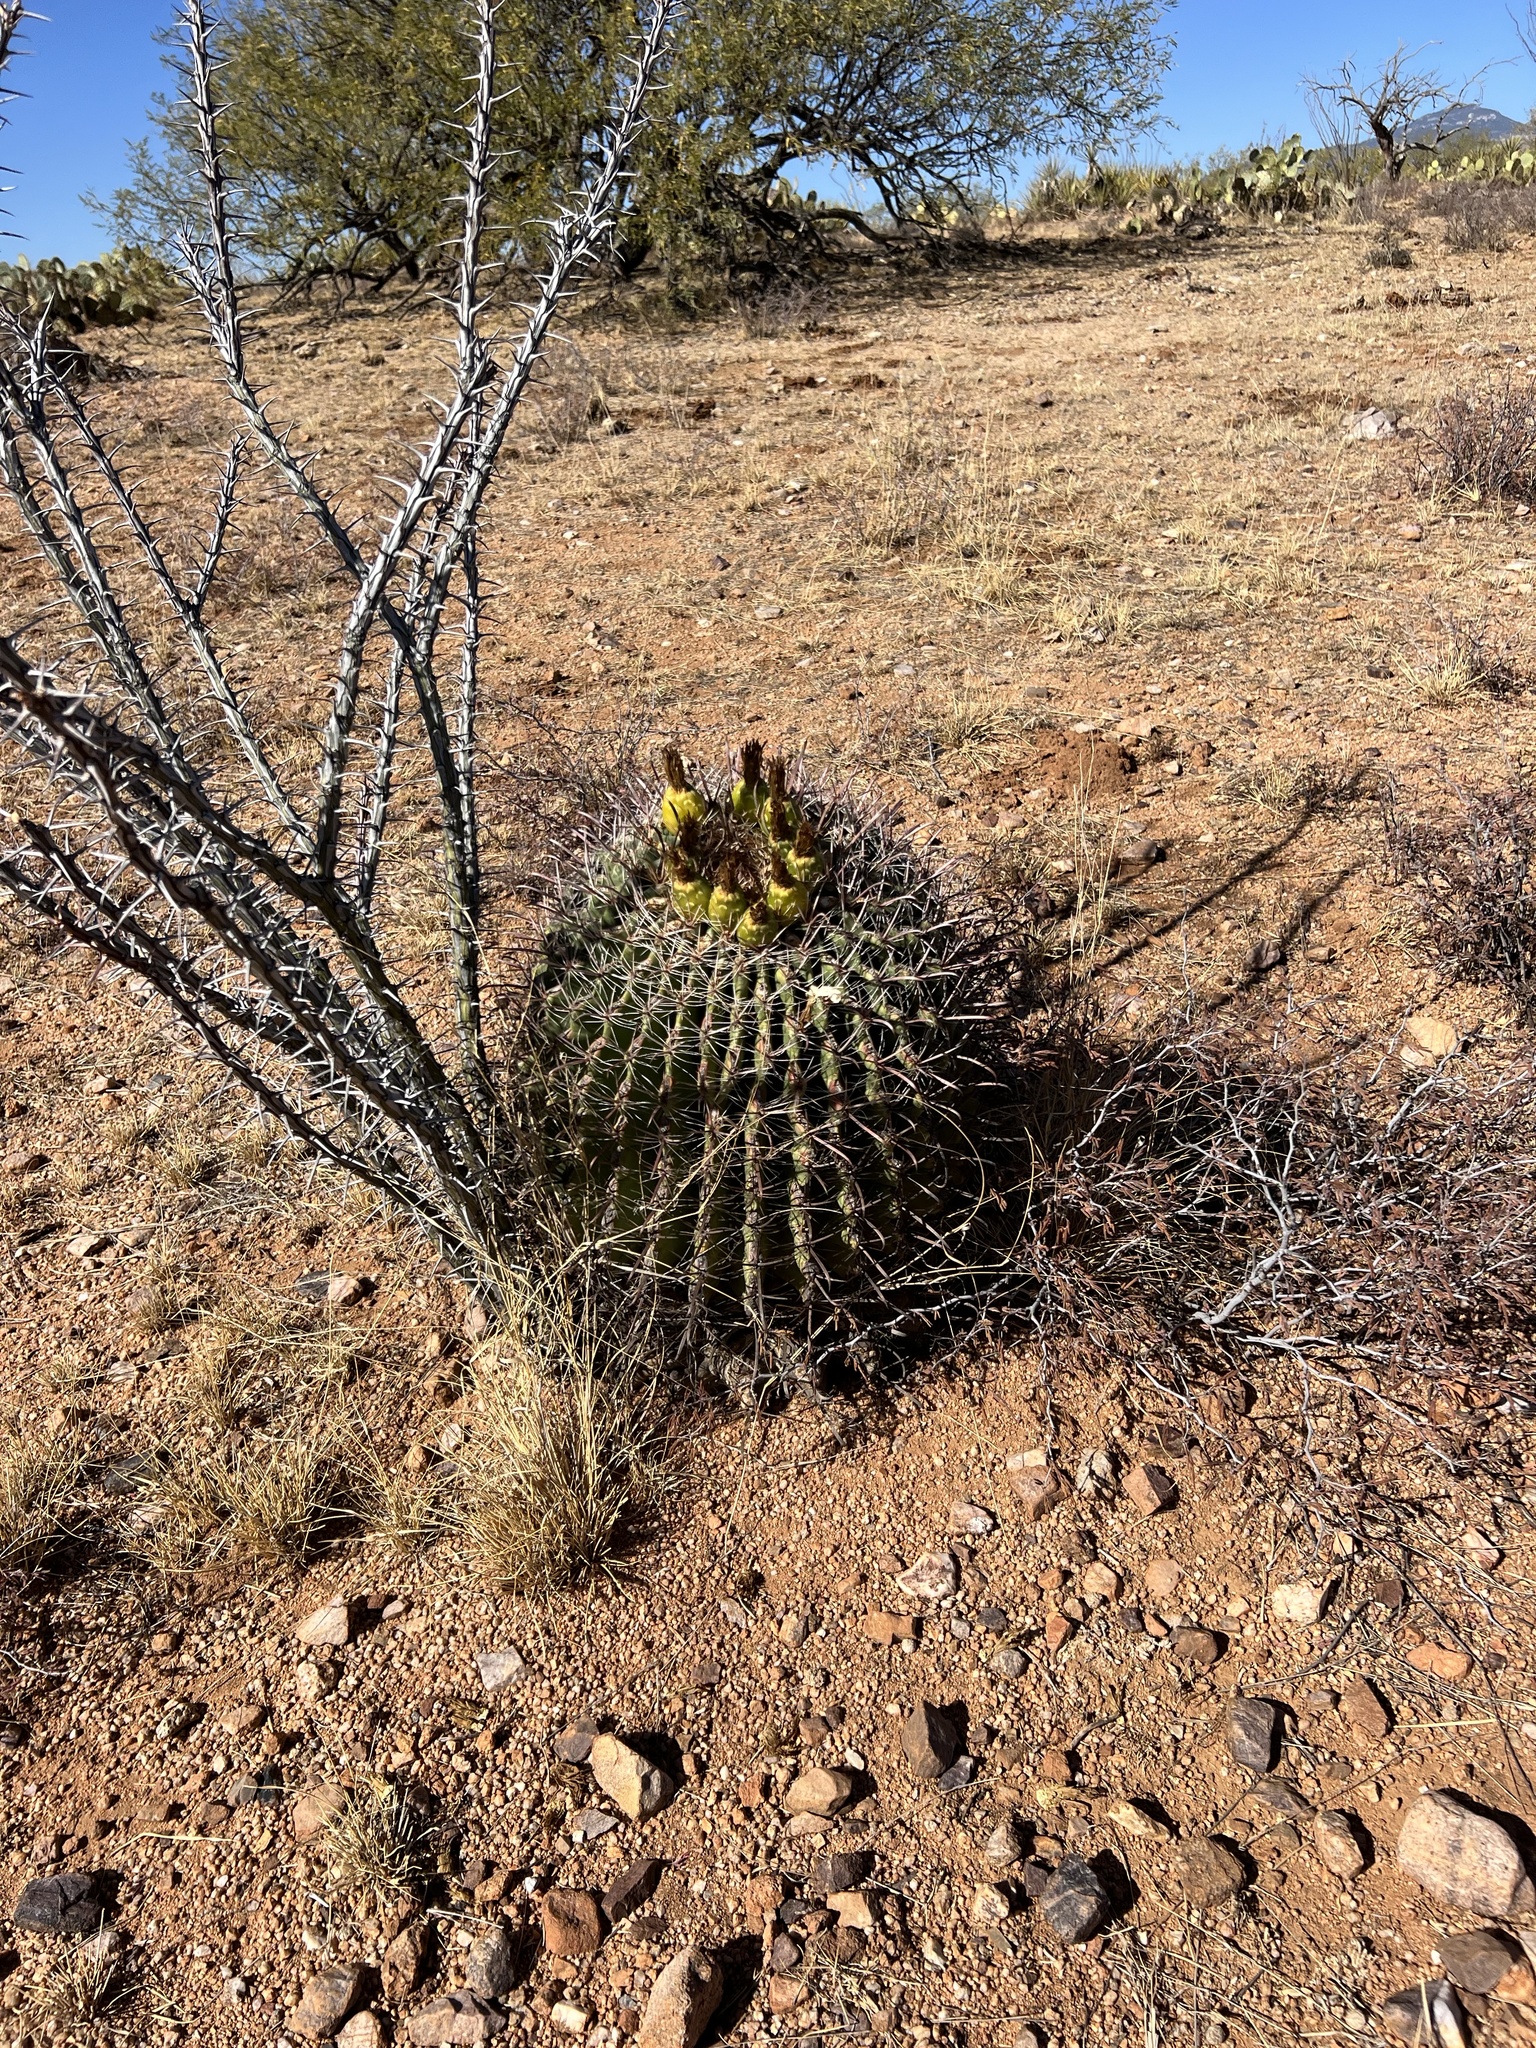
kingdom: Plantae
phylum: Tracheophyta
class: Magnoliopsida
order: Caryophyllales
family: Cactaceae
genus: Ferocactus
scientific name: Ferocactus wislizeni
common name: Candy barrel cactus
